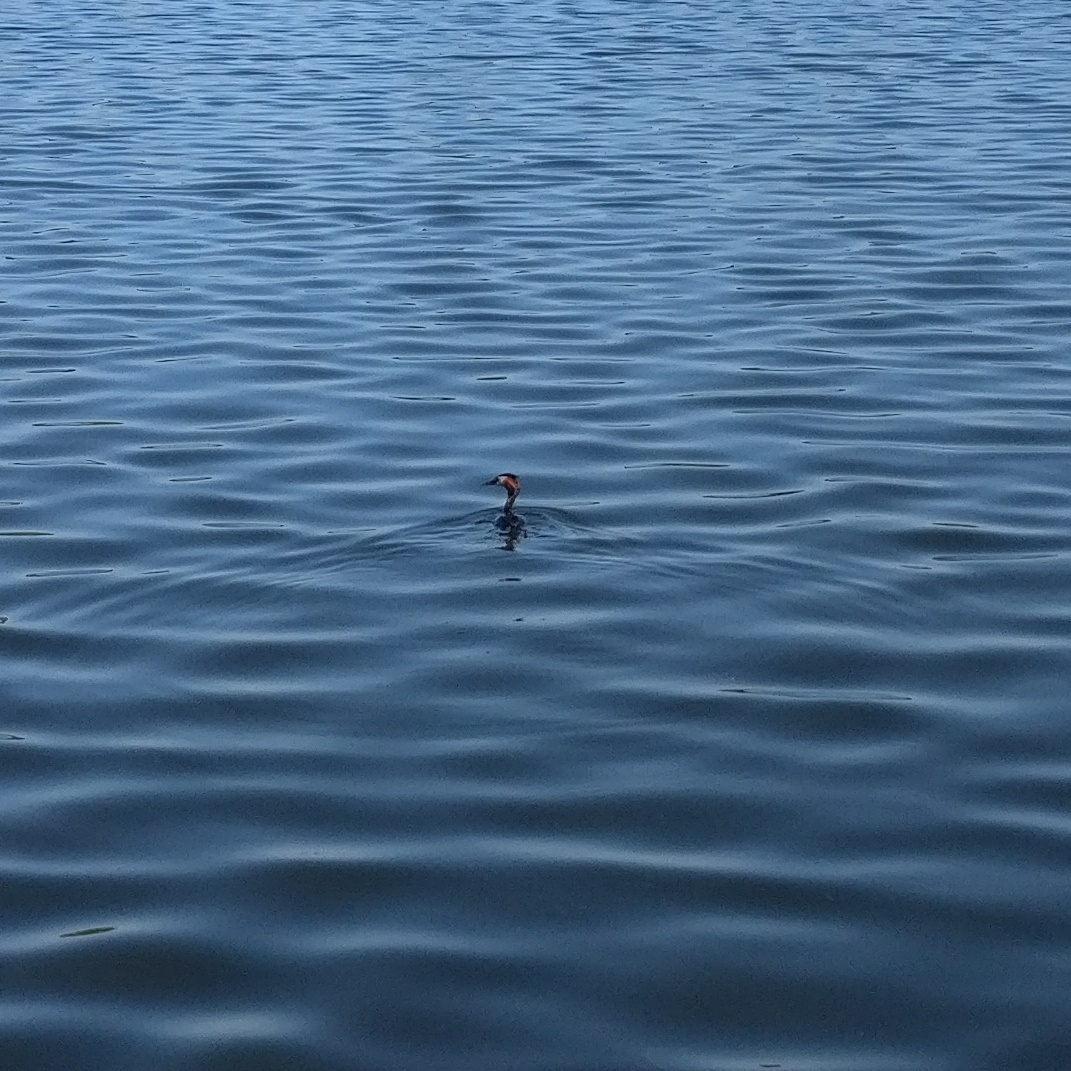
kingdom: Animalia
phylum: Chordata
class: Aves
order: Podicipediformes
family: Podicipedidae
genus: Podiceps
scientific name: Podiceps cristatus
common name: Great crested grebe
